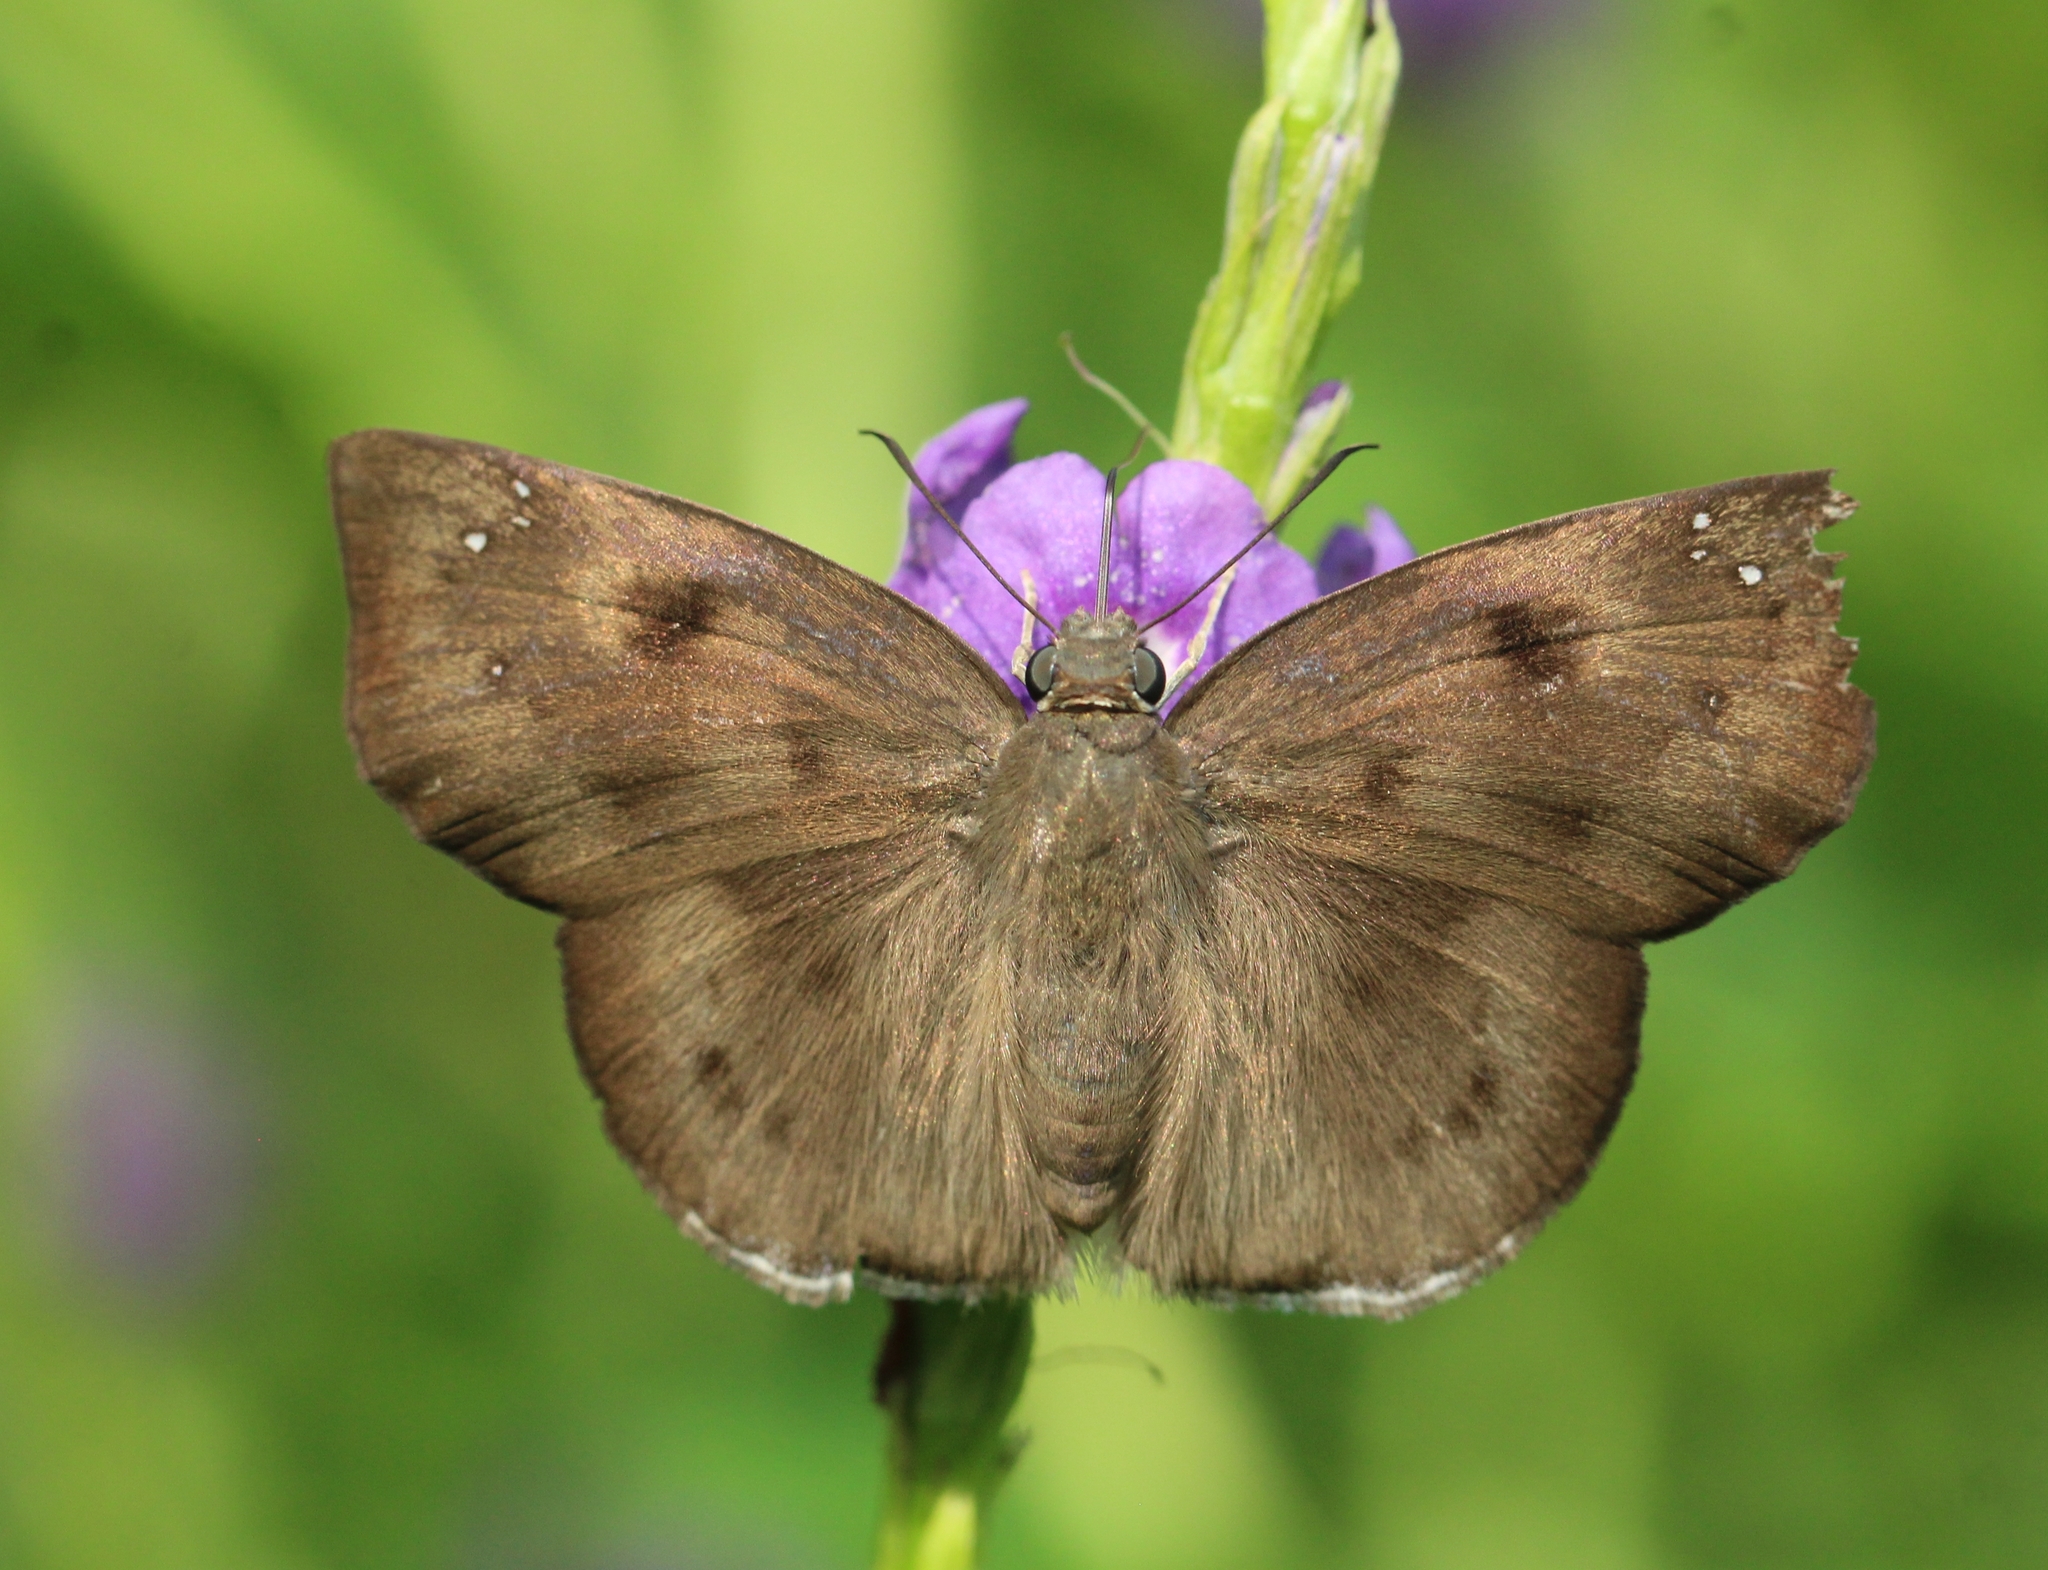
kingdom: Animalia
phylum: Arthropoda
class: Insecta
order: Lepidoptera
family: Hesperiidae
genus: Tagiades
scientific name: Tagiades gana
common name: Suffused snow flat
